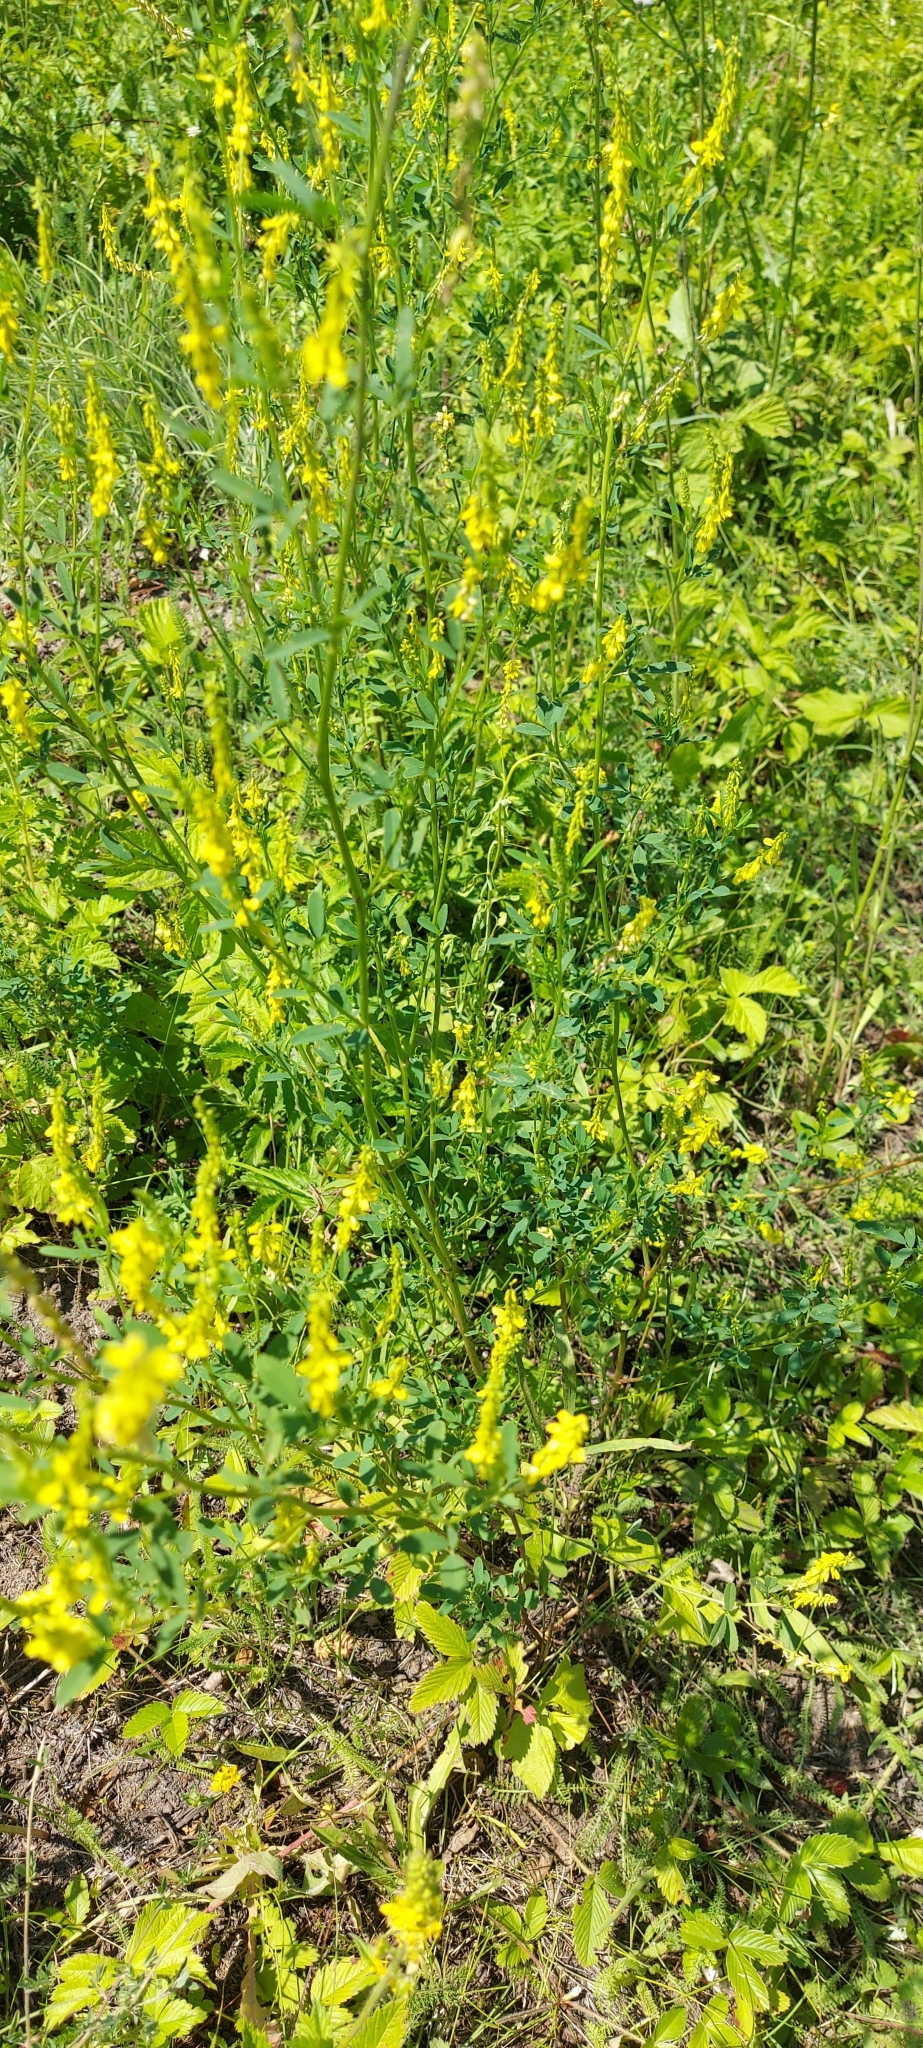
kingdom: Plantae
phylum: Tracheophyta
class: Magnoliopsida
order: Fabales
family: Fabaceae
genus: Melilotus
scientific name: Melilotus officinalis
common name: Sweetclover
